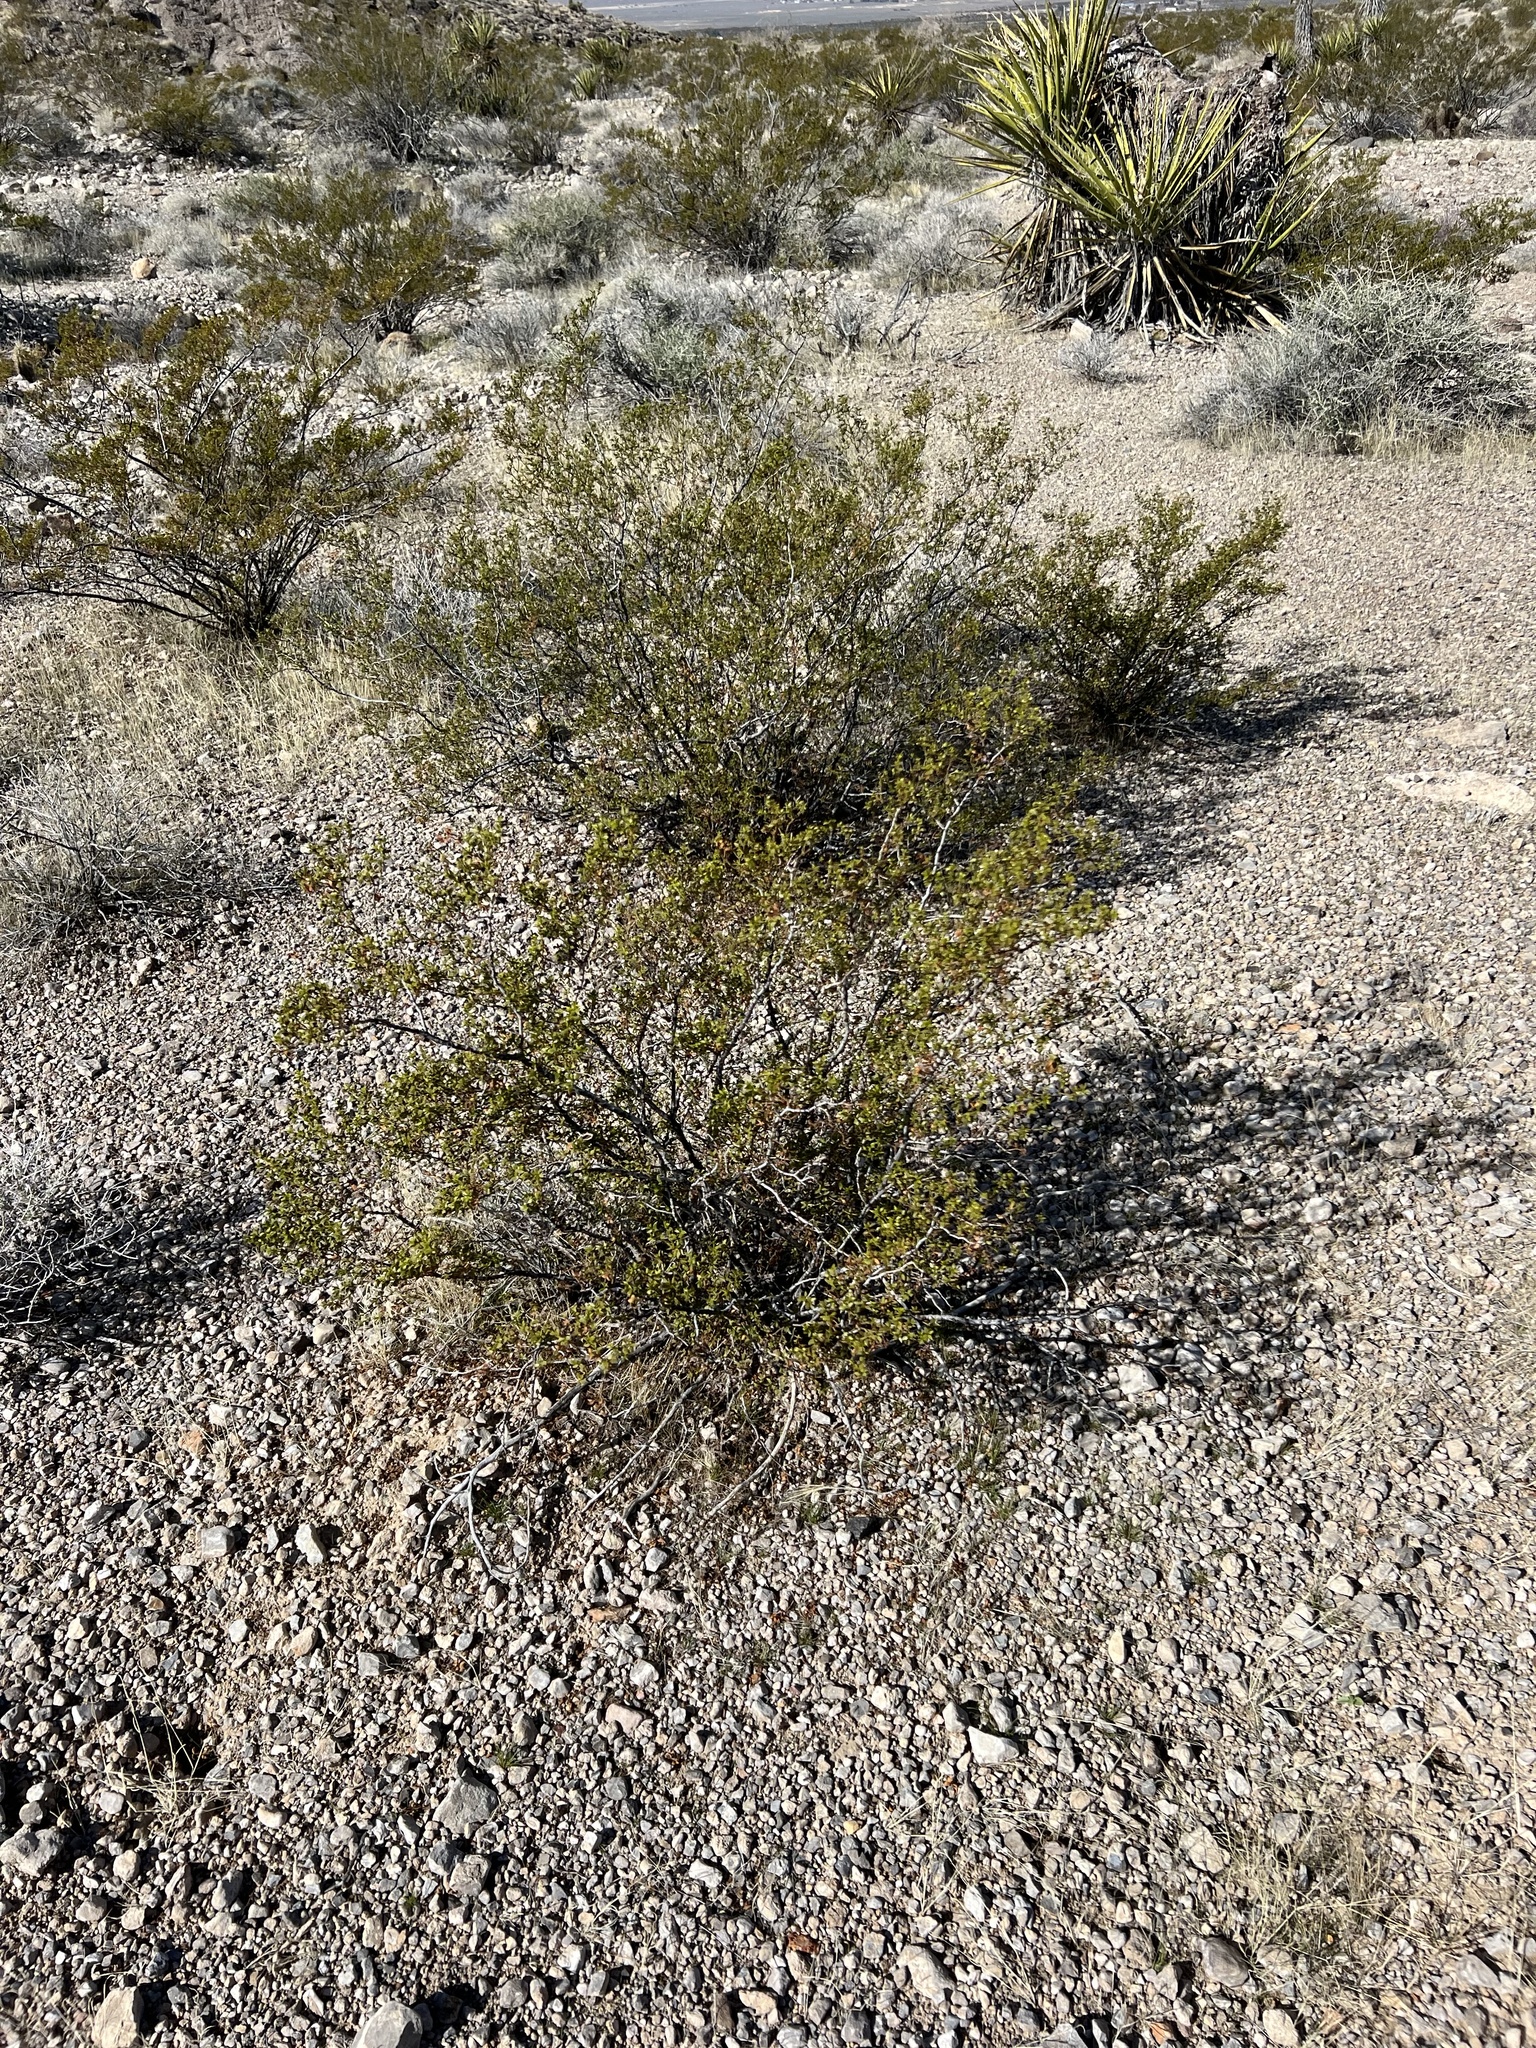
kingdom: Plantae
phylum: Tracheophyta
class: Magnoliopsida
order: Zygophyllales
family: Zygophyllaceae
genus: Larrea
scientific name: Larrea tridentata
